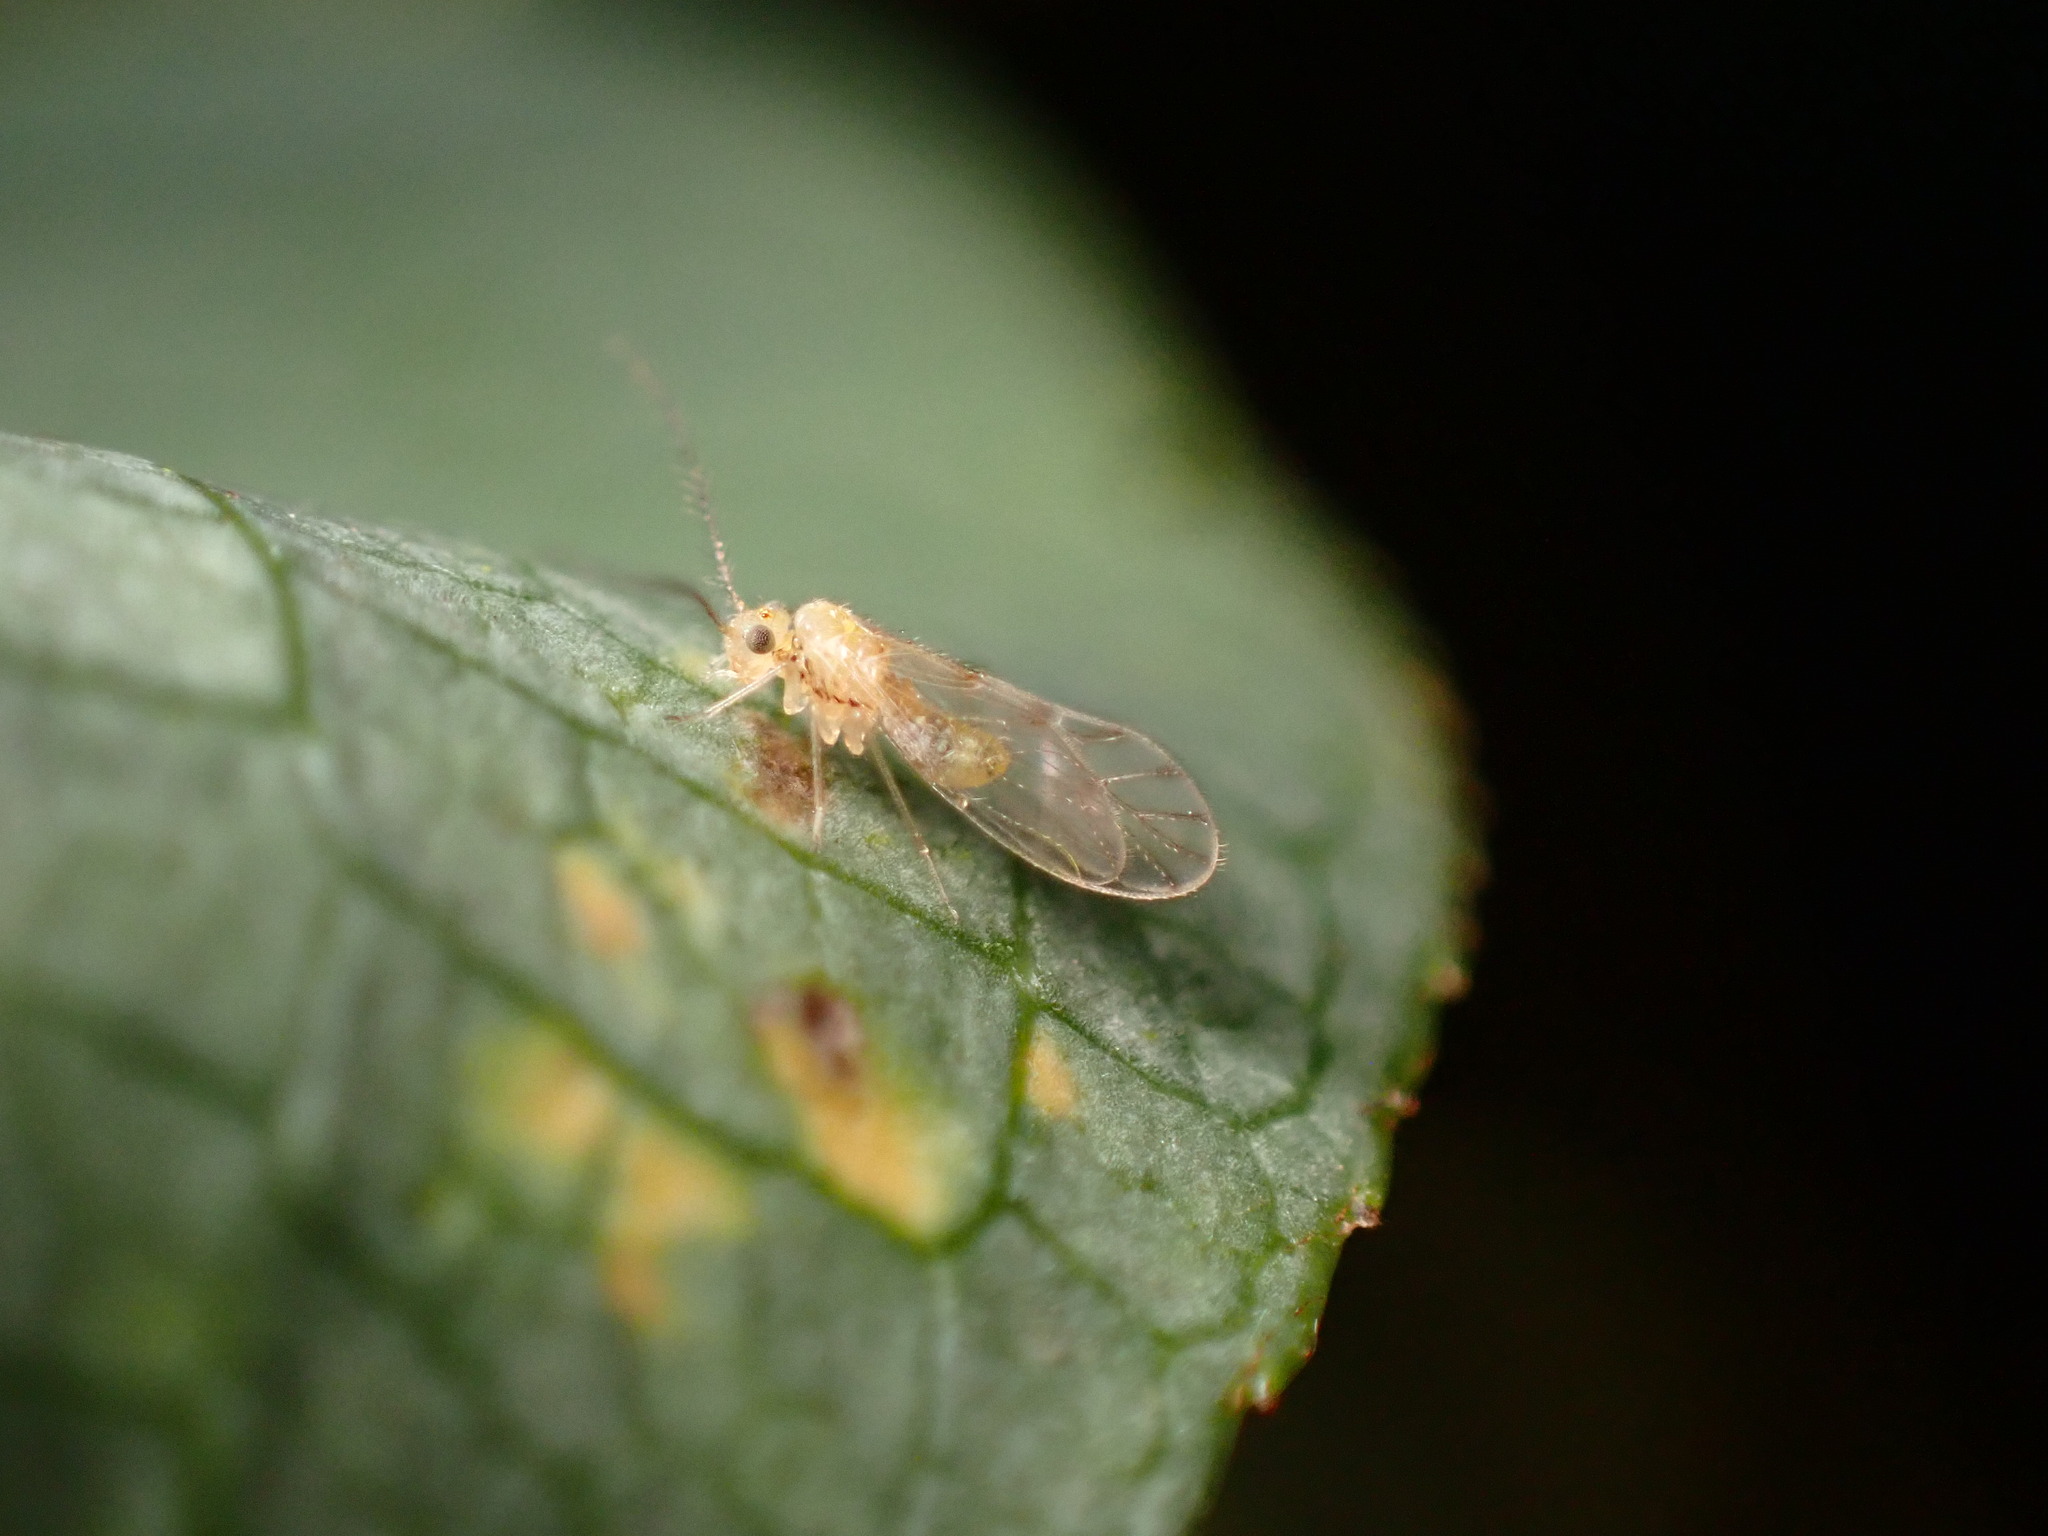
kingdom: Animalia
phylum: Arthropoda
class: Insecta
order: Psocodea
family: Trichopsocidae
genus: Trichopsocus
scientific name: Trichopsocus clarus
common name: Lash-faced psocid
